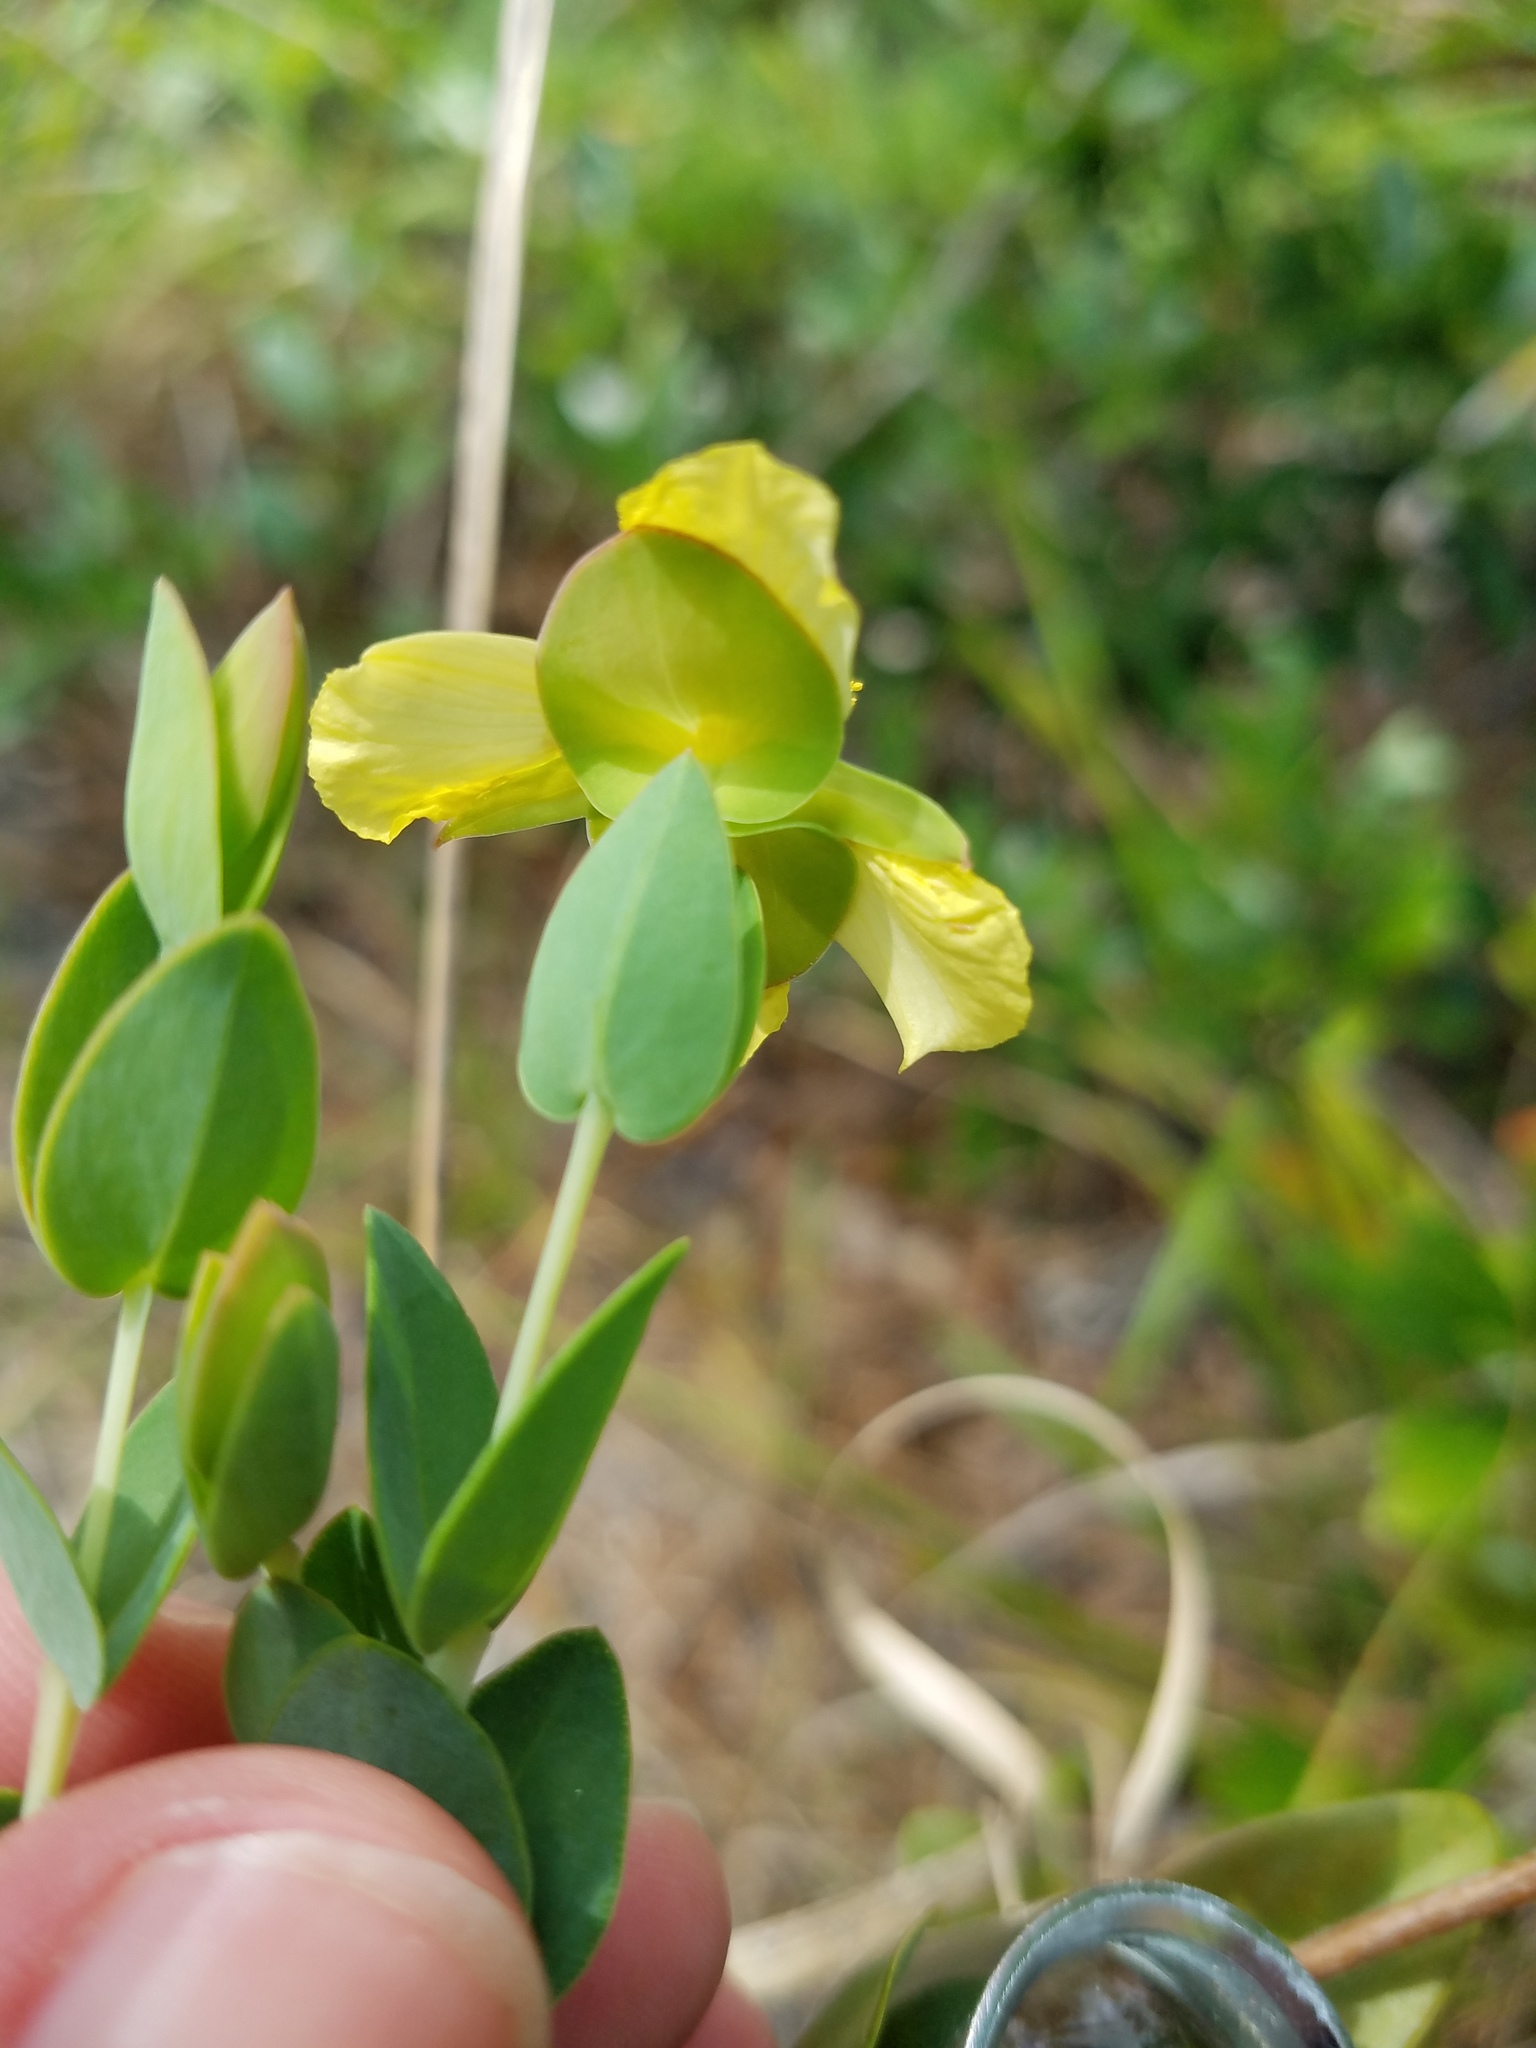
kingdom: Plantae
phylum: Tracheophyta
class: Magnoliopsida
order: Malpighiales
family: Hypericaceae
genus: Hypericum
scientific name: Hypericum tetrapetalum
